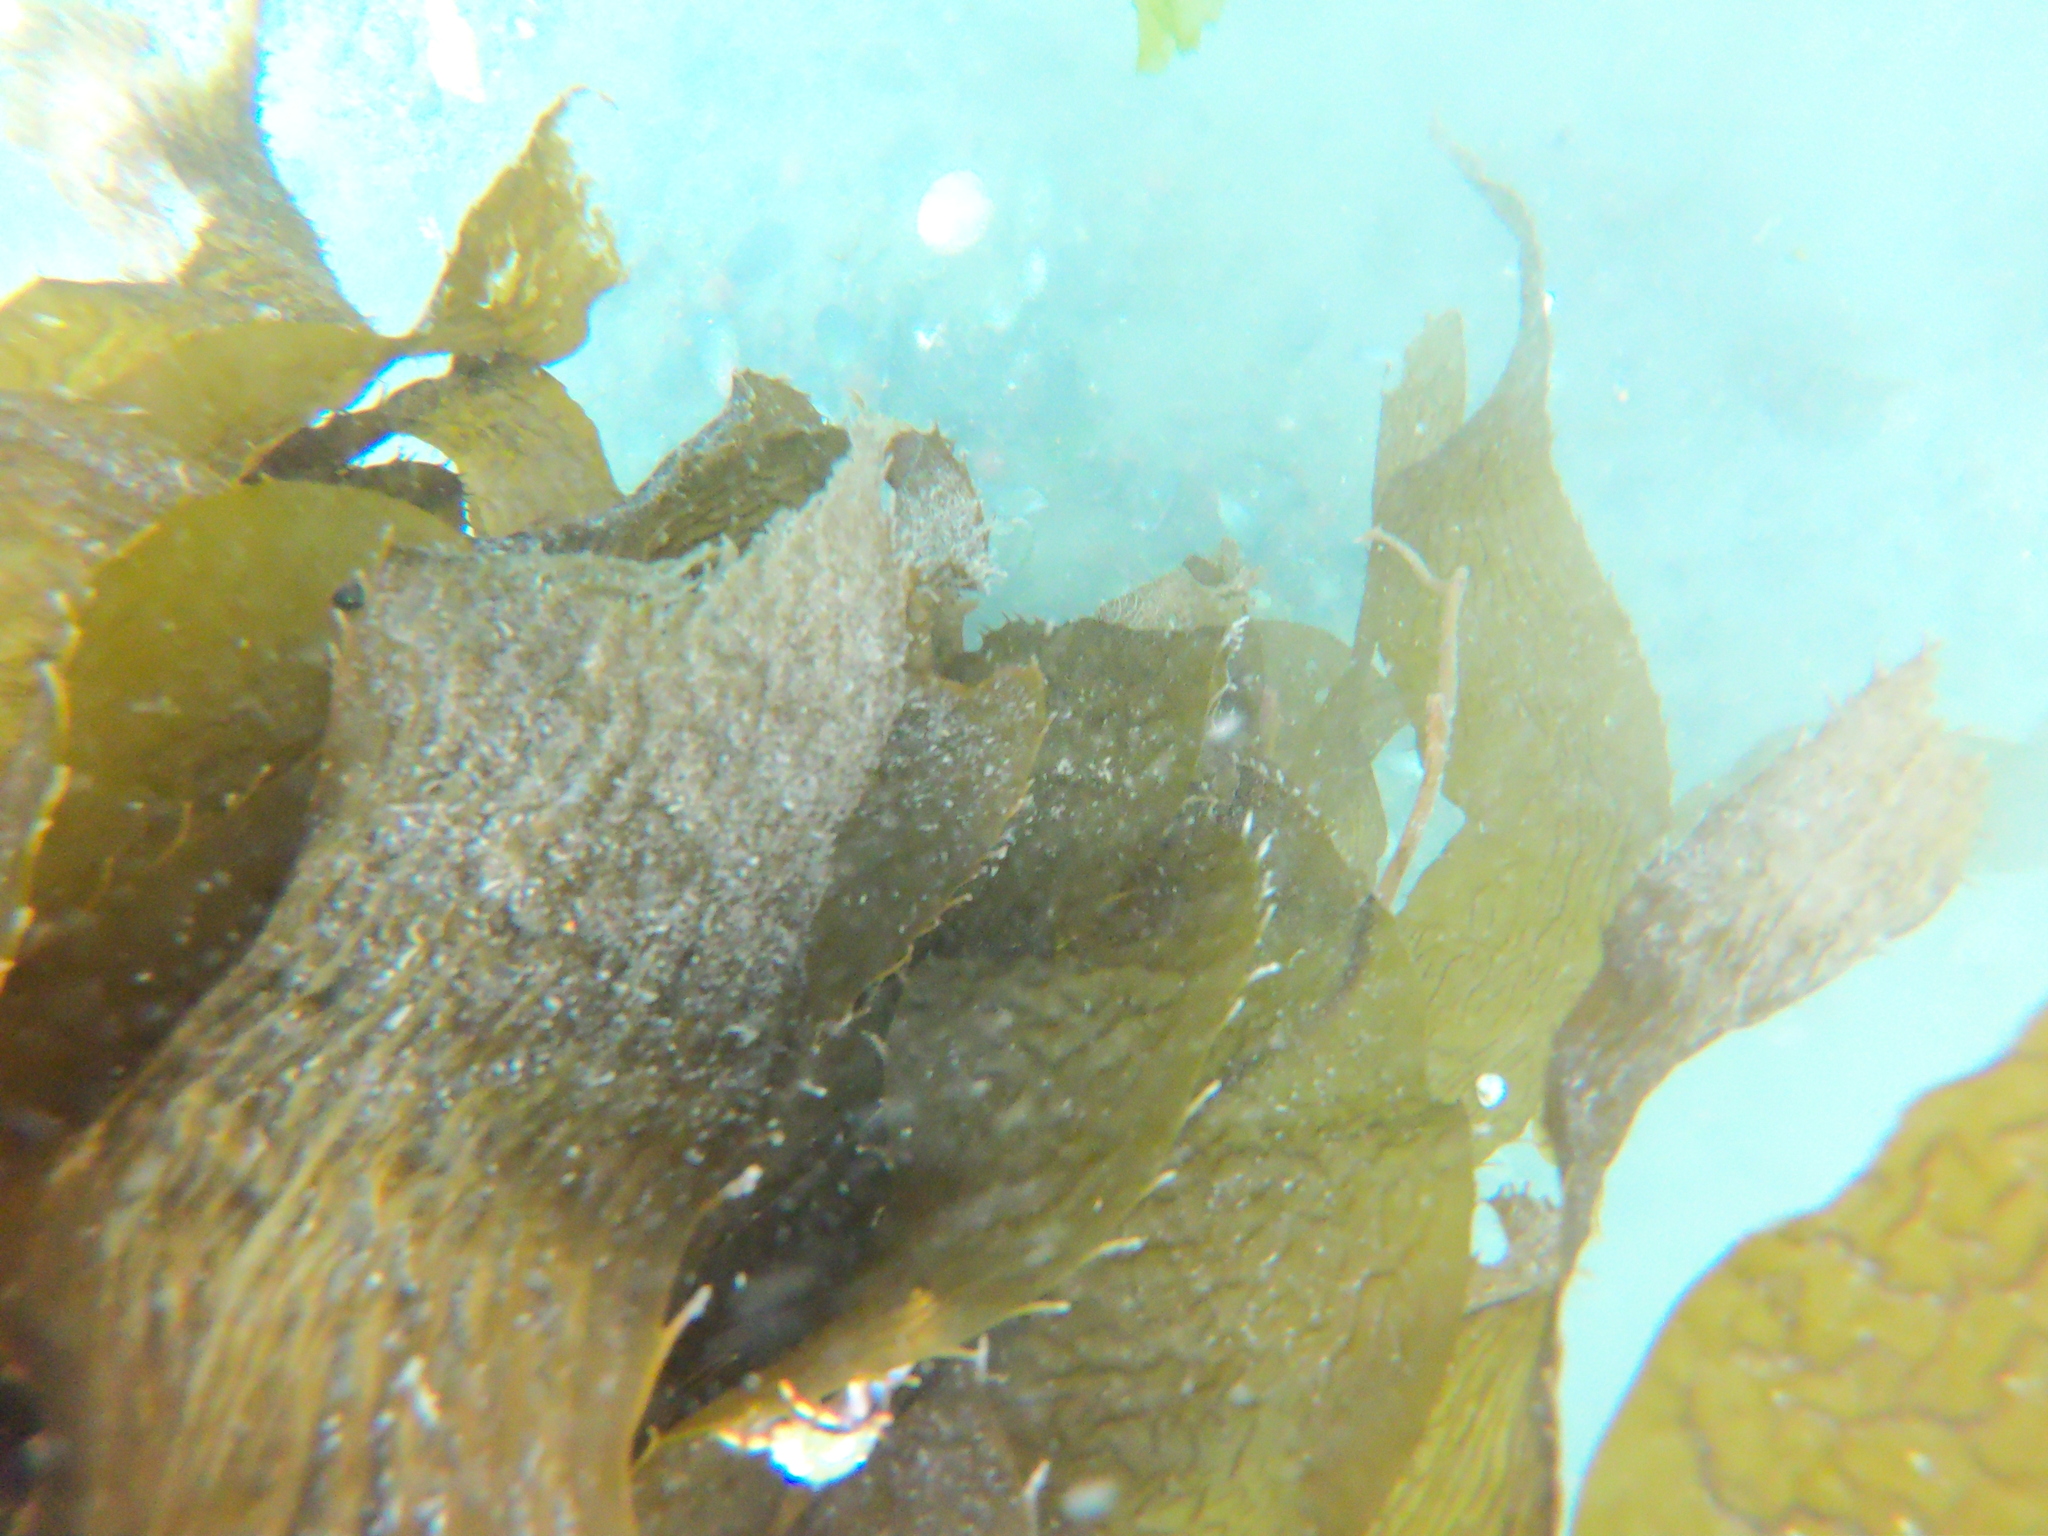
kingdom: Animalia
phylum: Arthropoda
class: Malacostraca
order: Decapoda
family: Paguridae
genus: Pagurus
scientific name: Pagurus comptus
